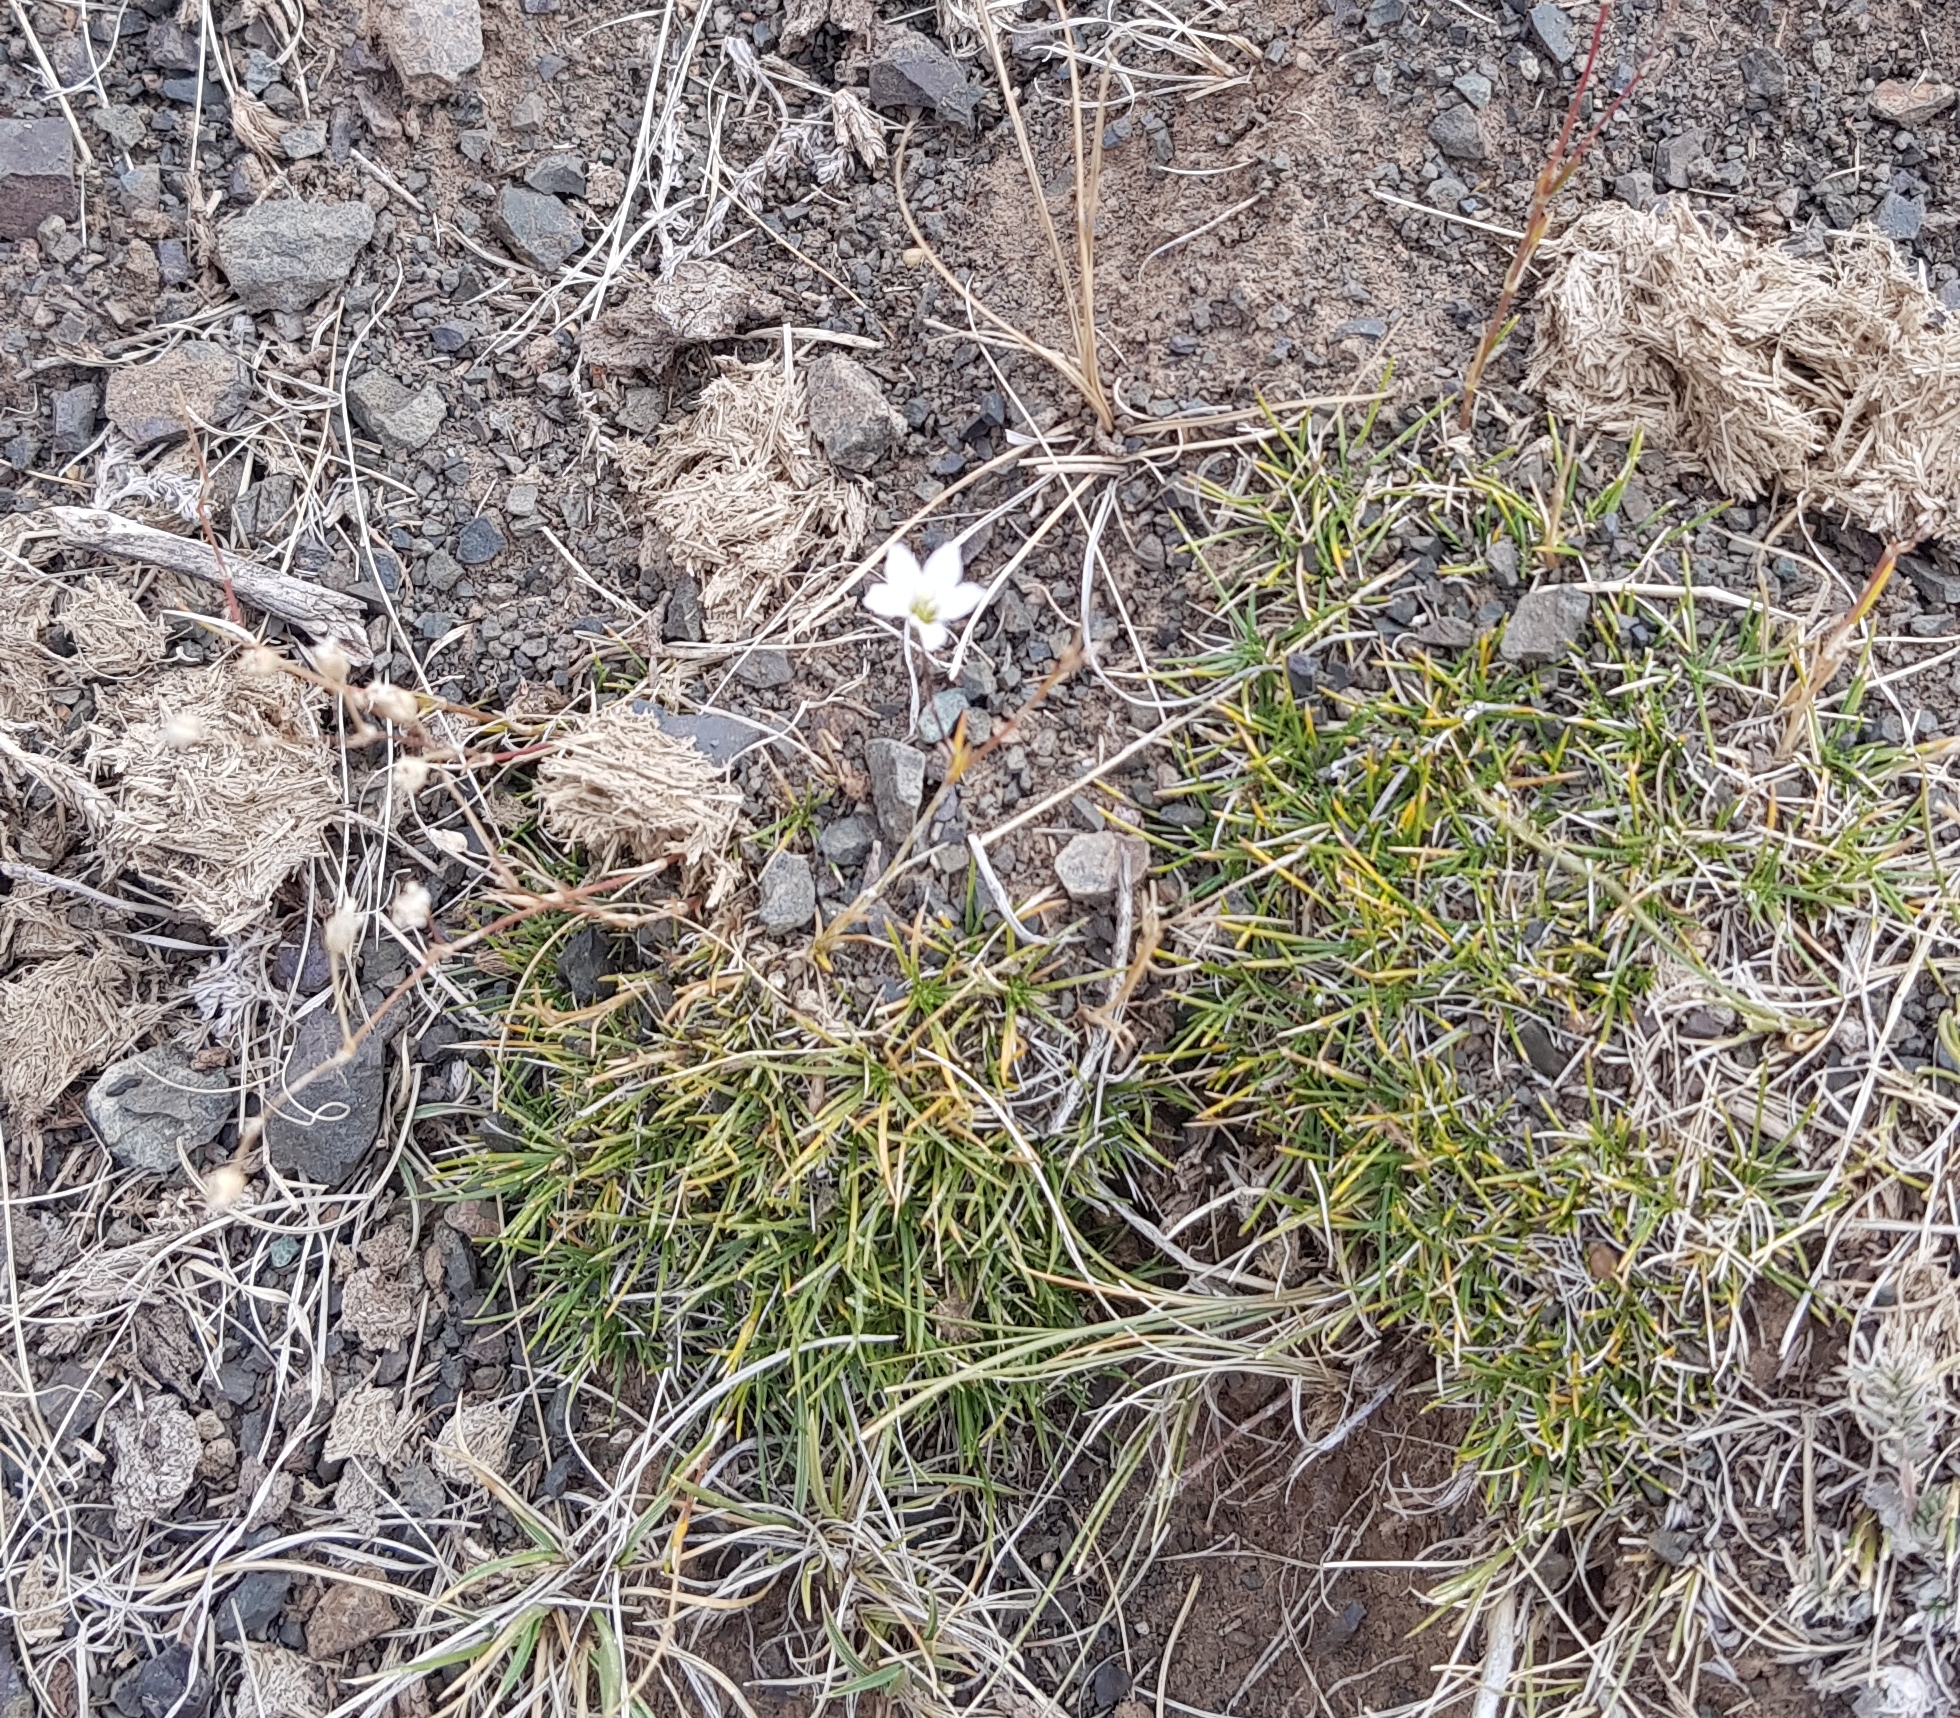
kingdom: Plantae
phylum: Tracheophyta
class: Magnoliopsida
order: Caryophyllales
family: Caryophyllaceae
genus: Eremogone
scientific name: Eremogone capillaris
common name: Slender mountain sandwort
